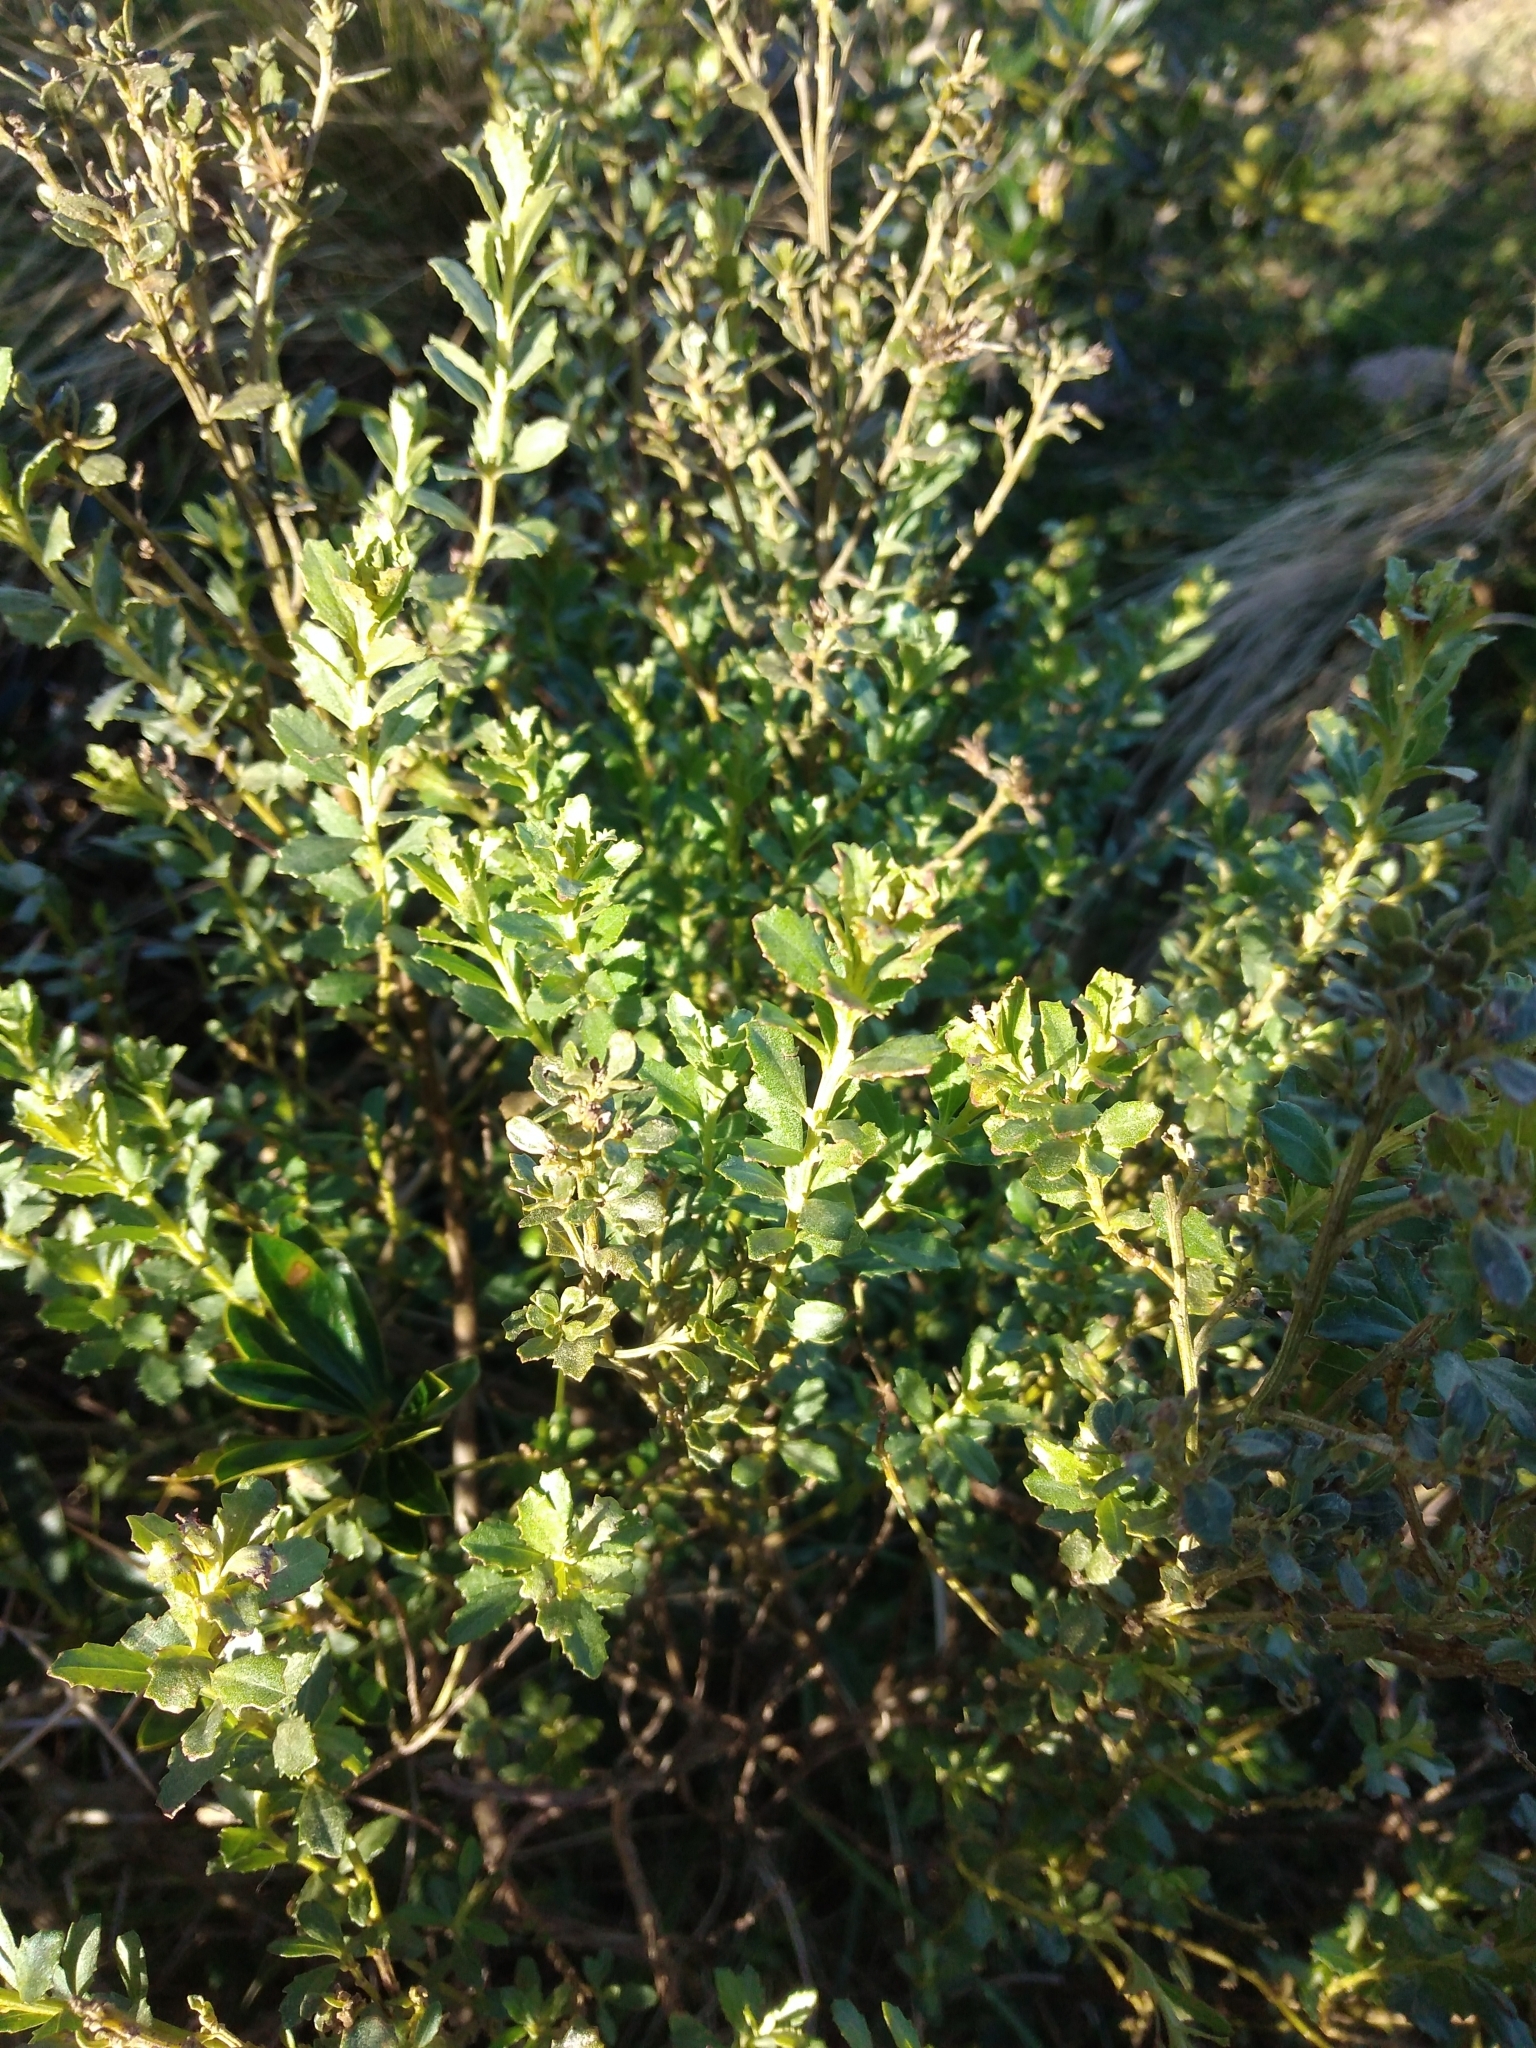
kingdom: Plantae
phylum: Tracheophyta
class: Magnoliopsida
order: Asterales
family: Asteraceae
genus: Baccharis
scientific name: Baccharis cognata
